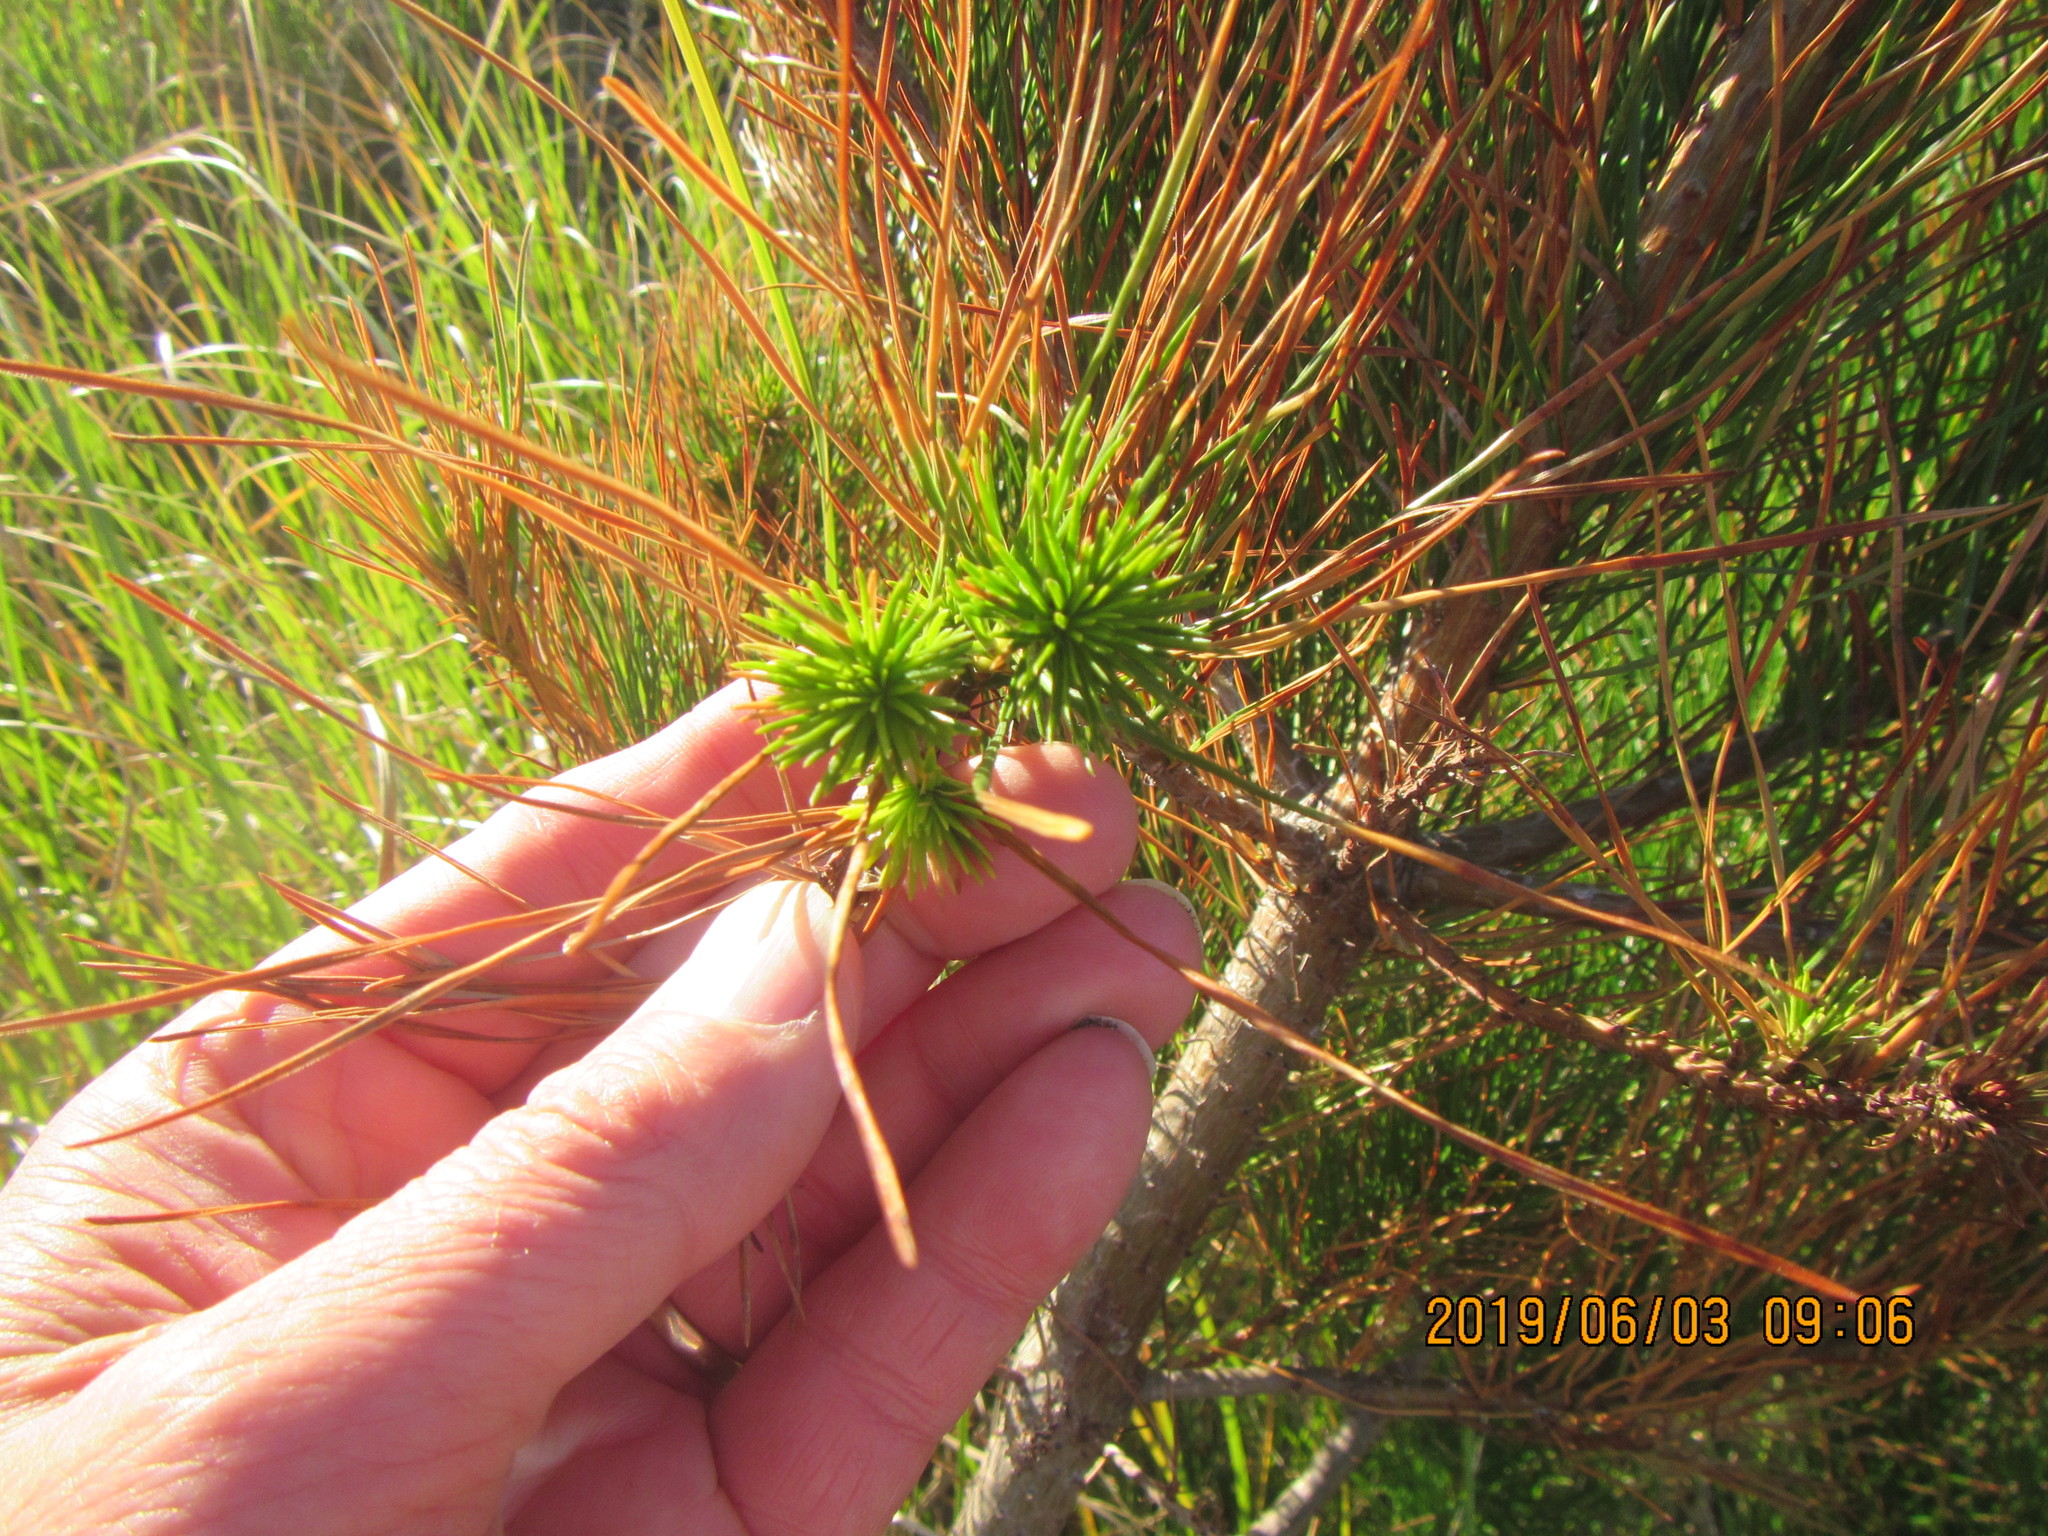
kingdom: Plantae
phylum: Tracheophyta
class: Pinopsida
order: Pinales
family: Pinaceae
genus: Pinus
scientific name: Pinus radiata
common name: Monterey pine
